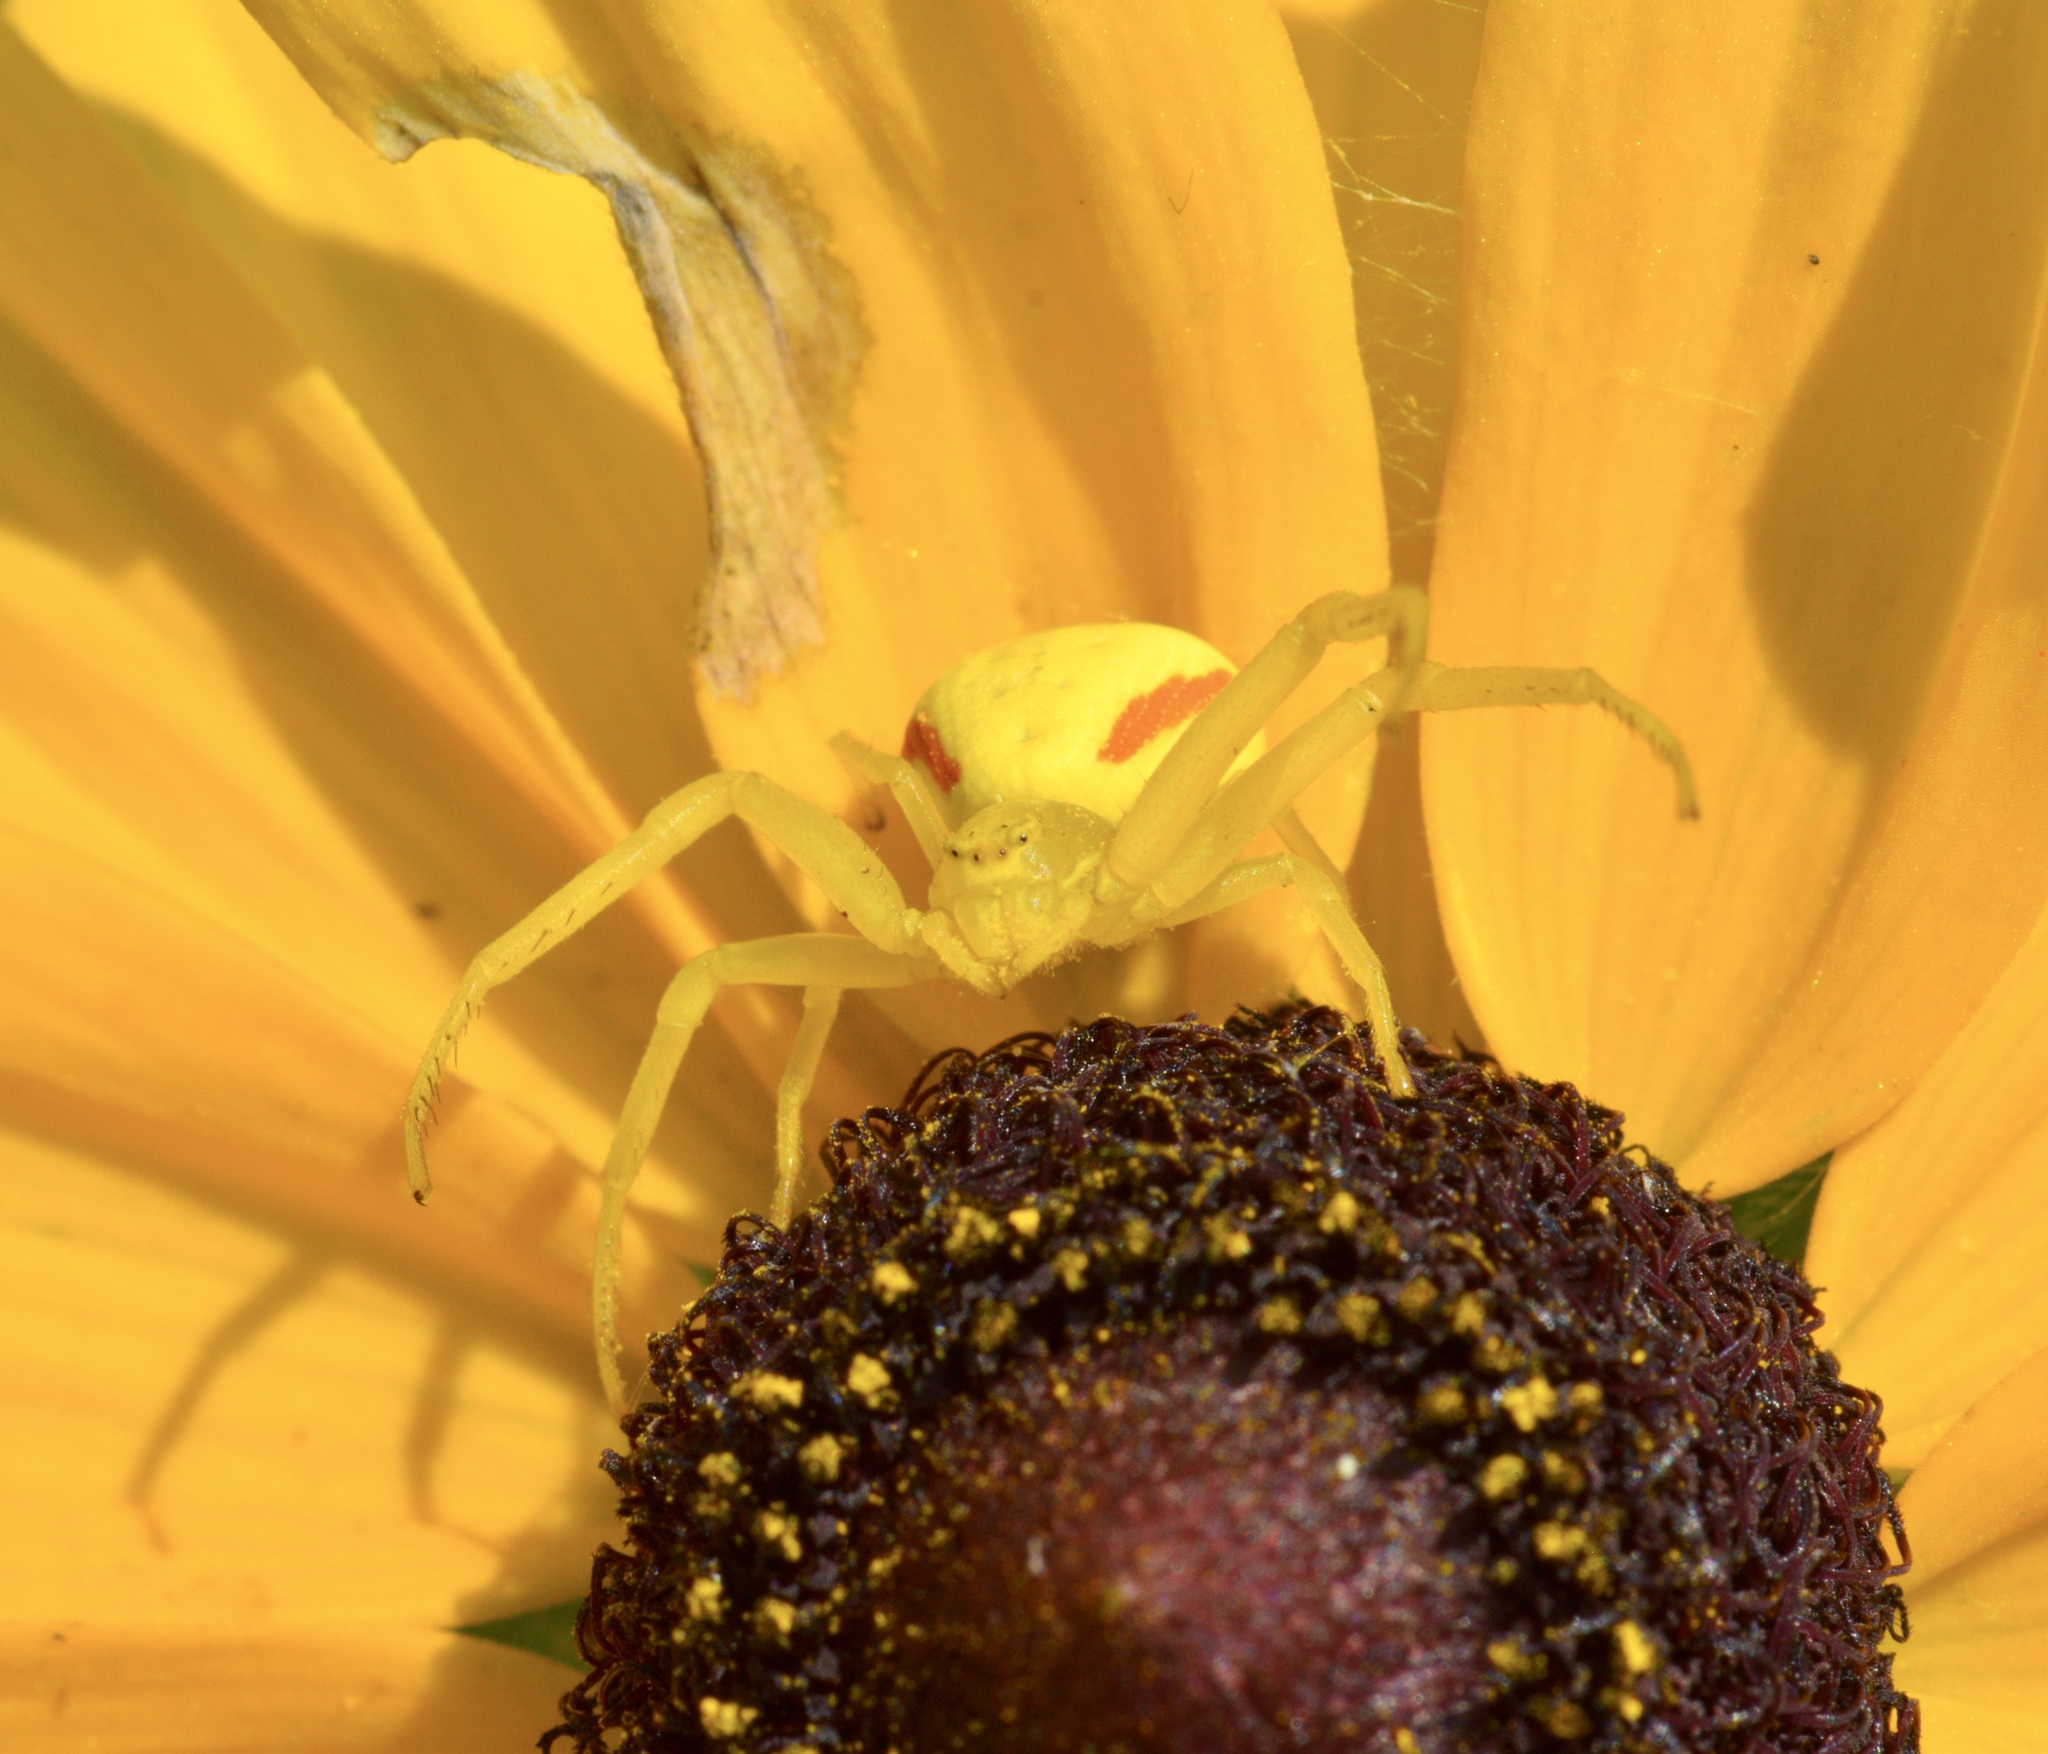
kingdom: Animalia
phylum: Arthropoda
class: Arachnida
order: Araneae
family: Thomisidae
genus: Misumena
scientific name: Misumena vatia
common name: Goldenrod crab spider
